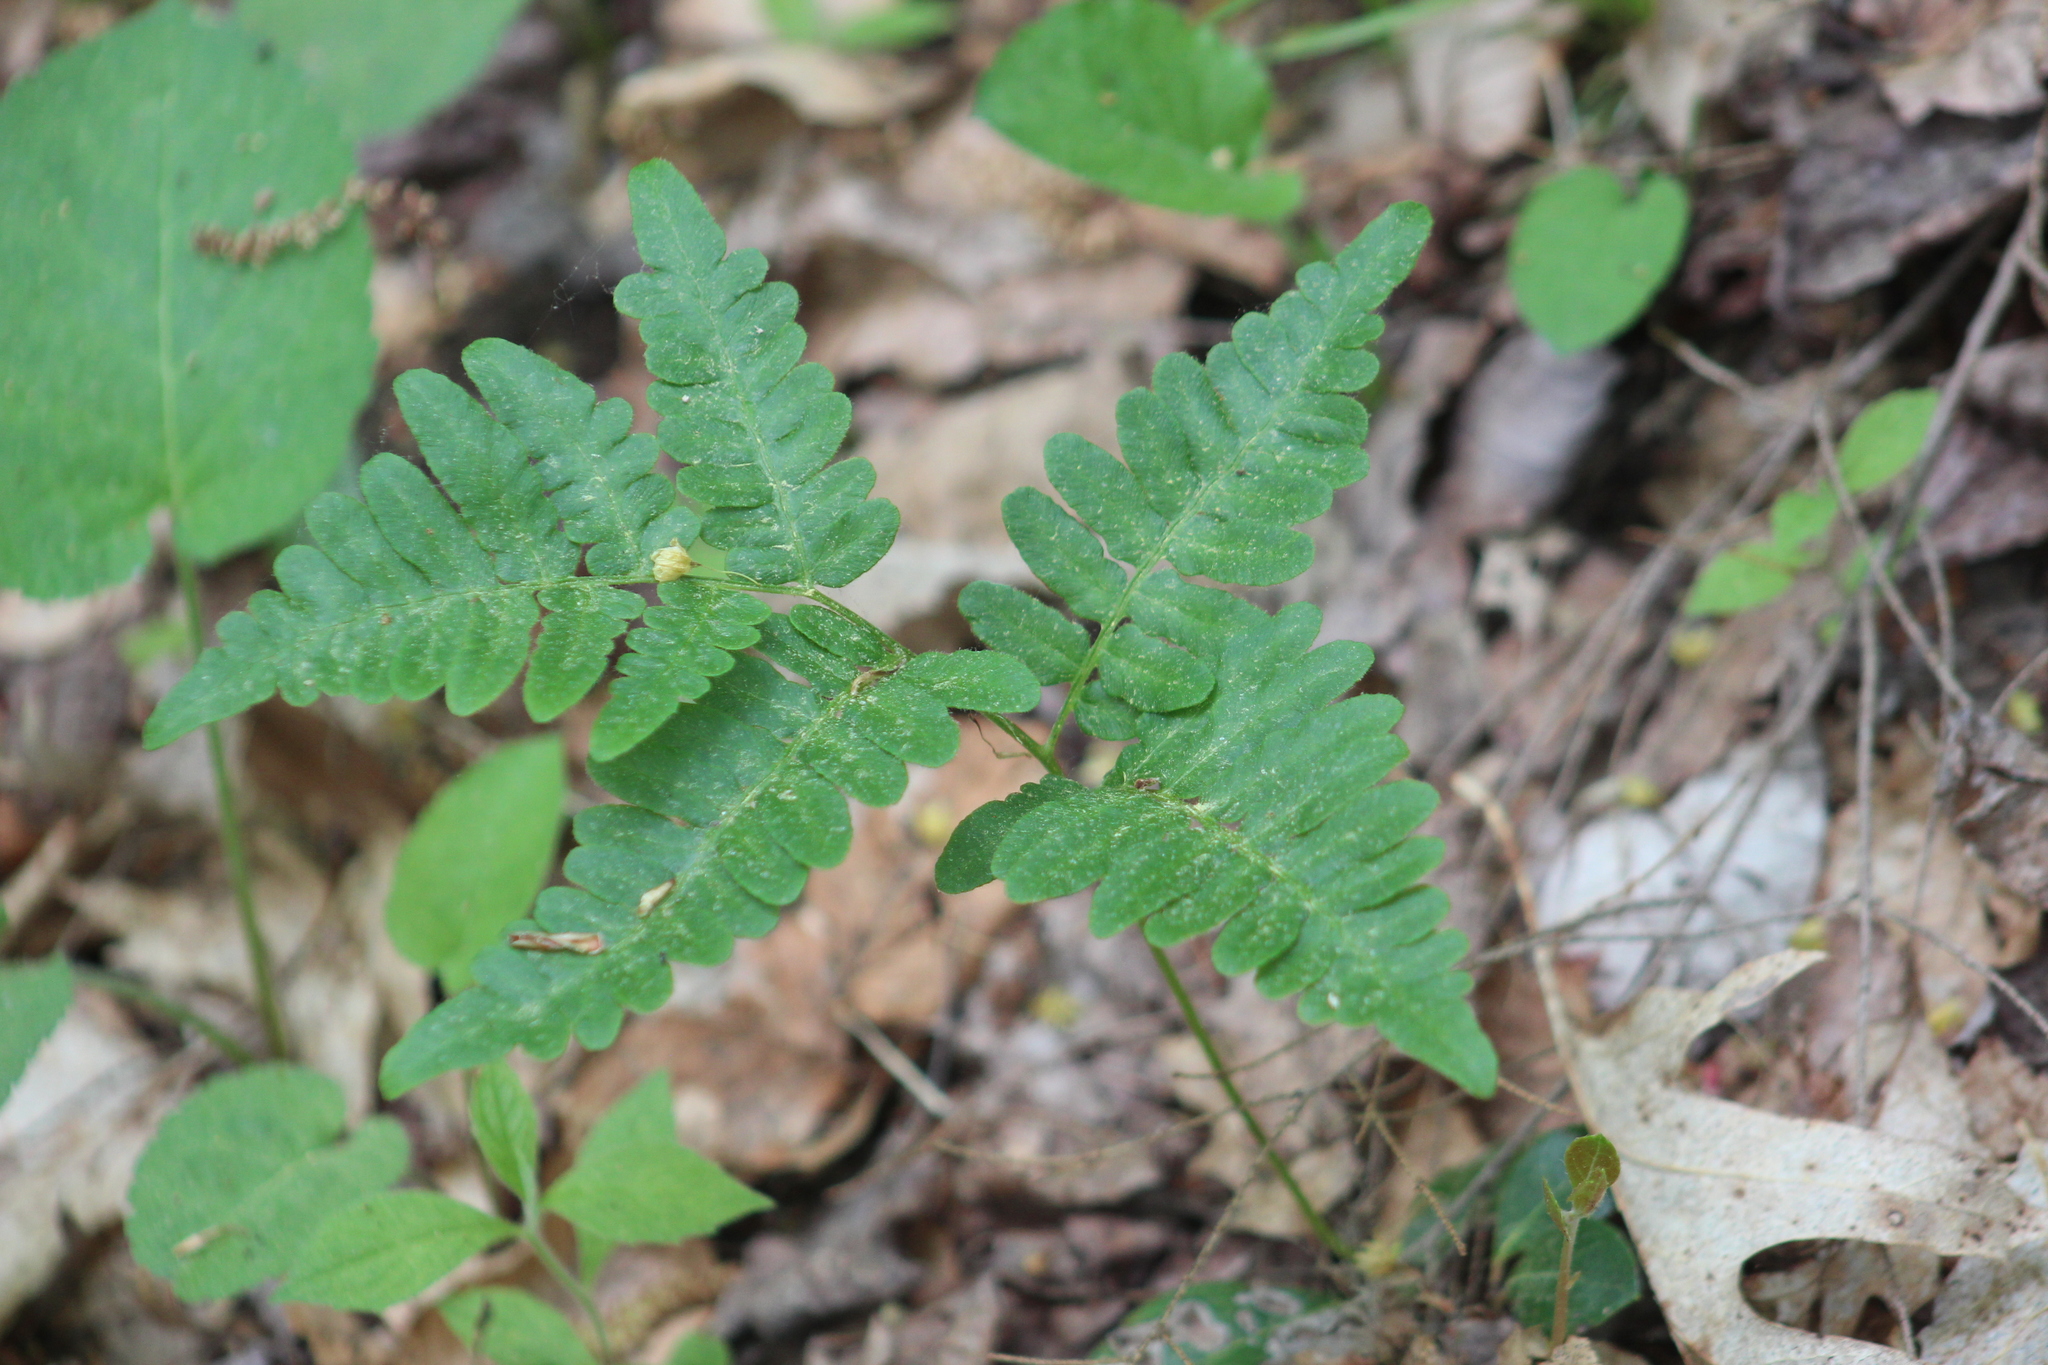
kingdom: Plantae
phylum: Tracheophyta
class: Polypodiopsida
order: Polypodiales
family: Dennstaedtiaceae
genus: Pteridium
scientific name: Pteridium aquilinum
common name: Bracken
